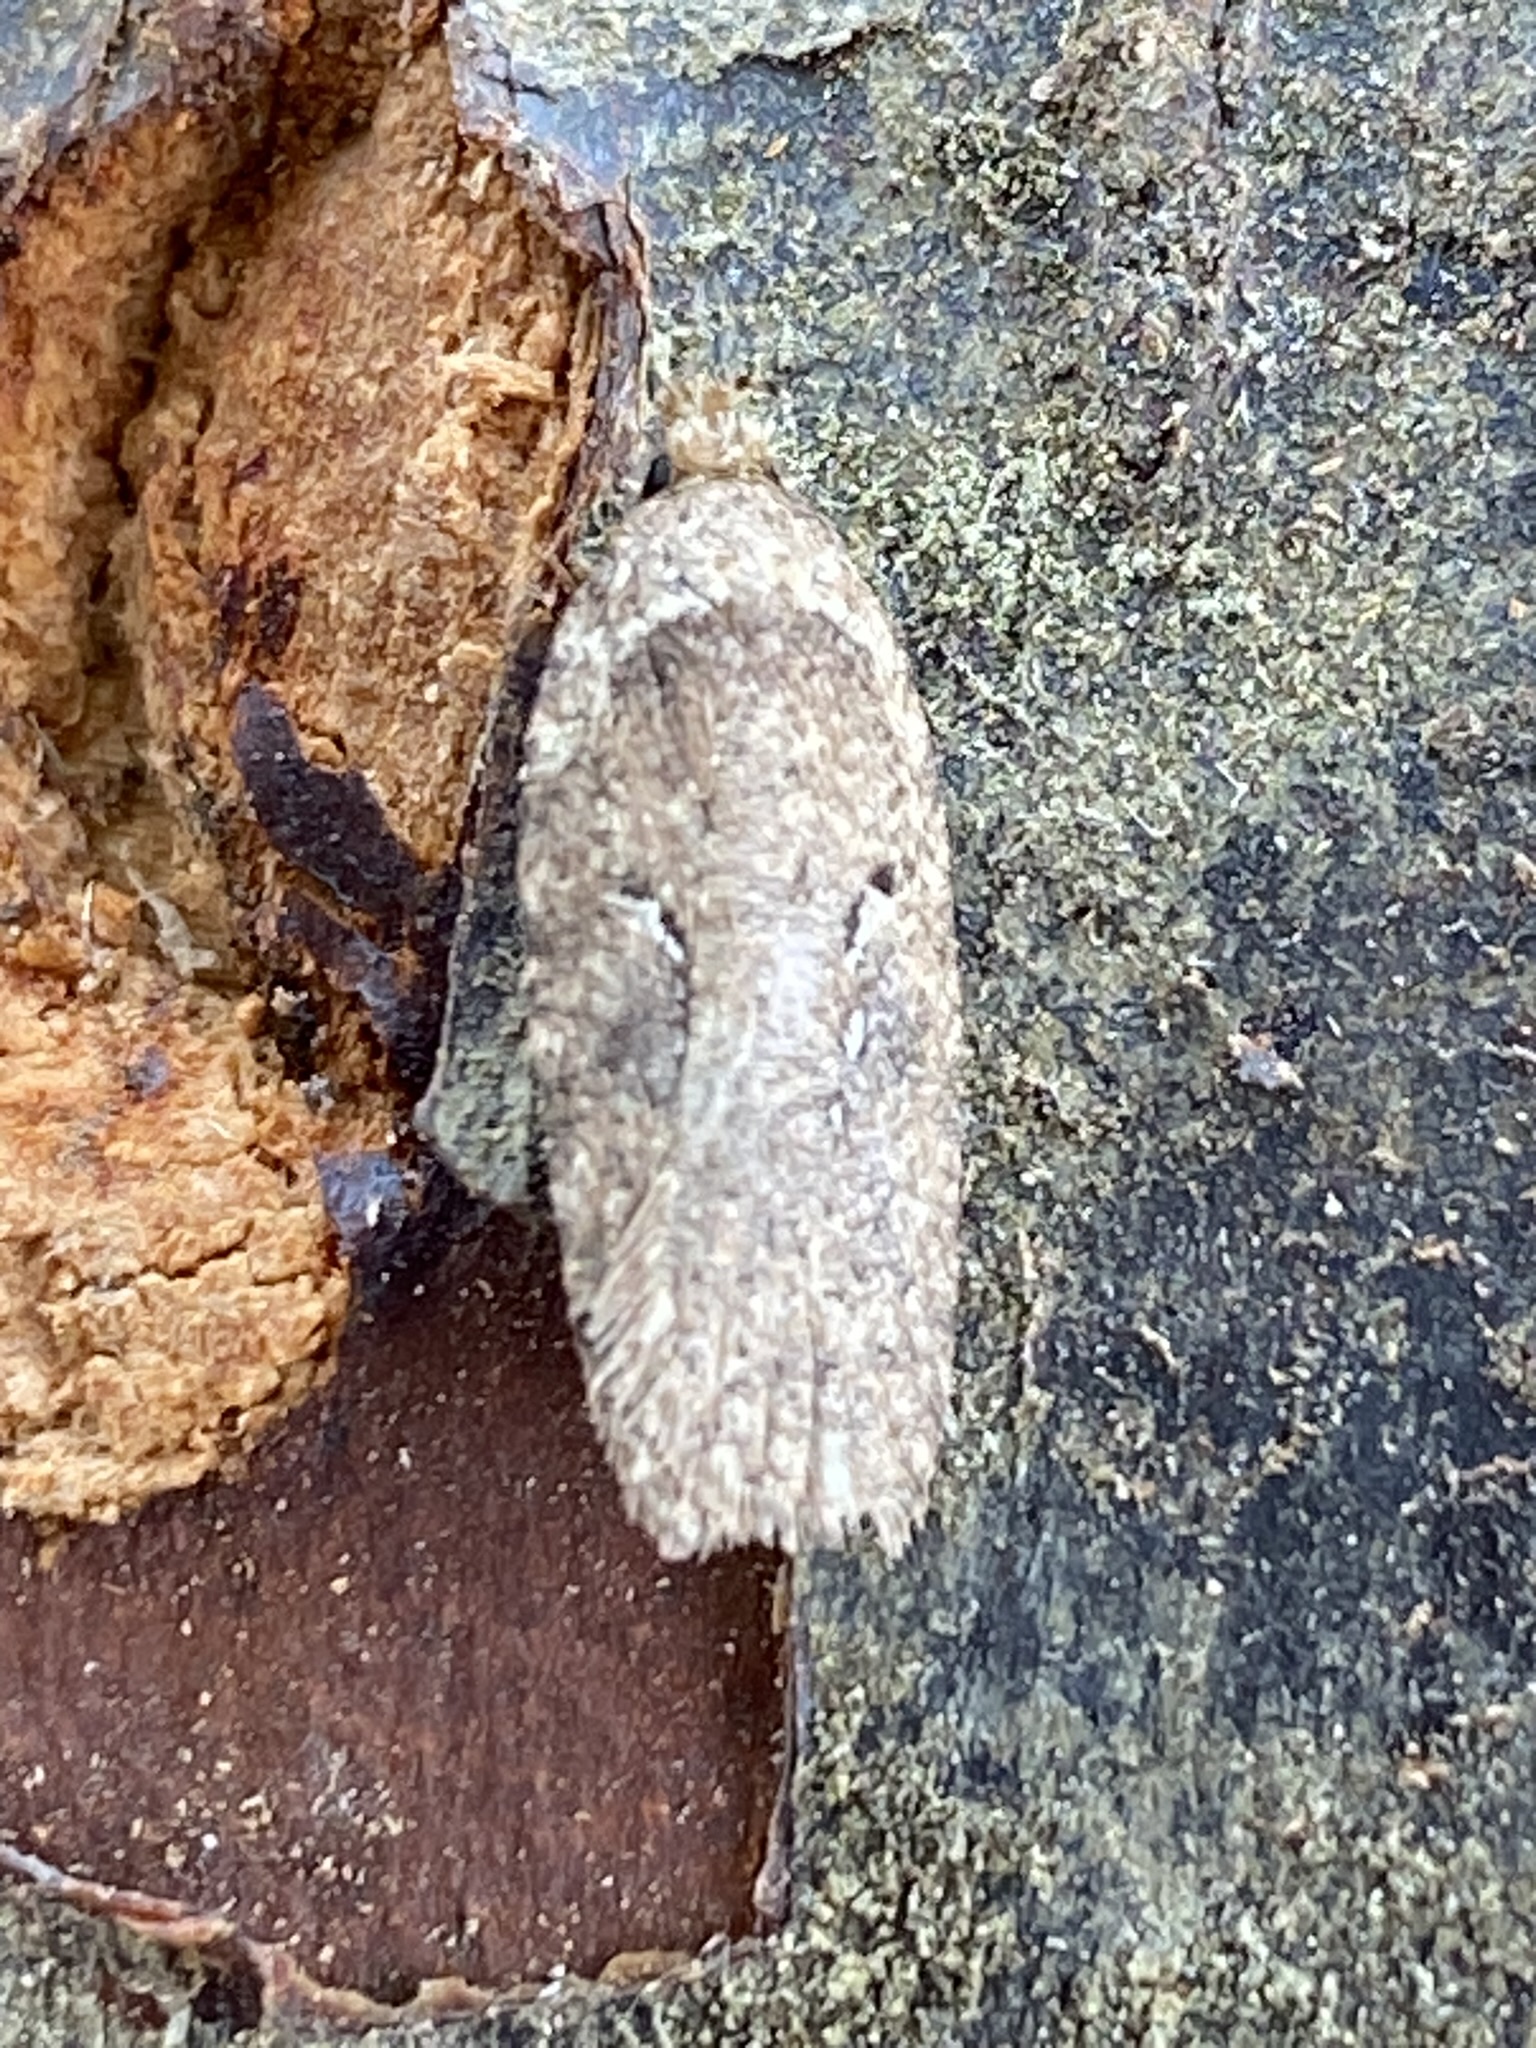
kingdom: Animalia
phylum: Arthropoda
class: Insecta
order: Lepidoptera
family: Depressariidae
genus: Agonopterix
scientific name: Agonopterix heracliana
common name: Common flat-body
